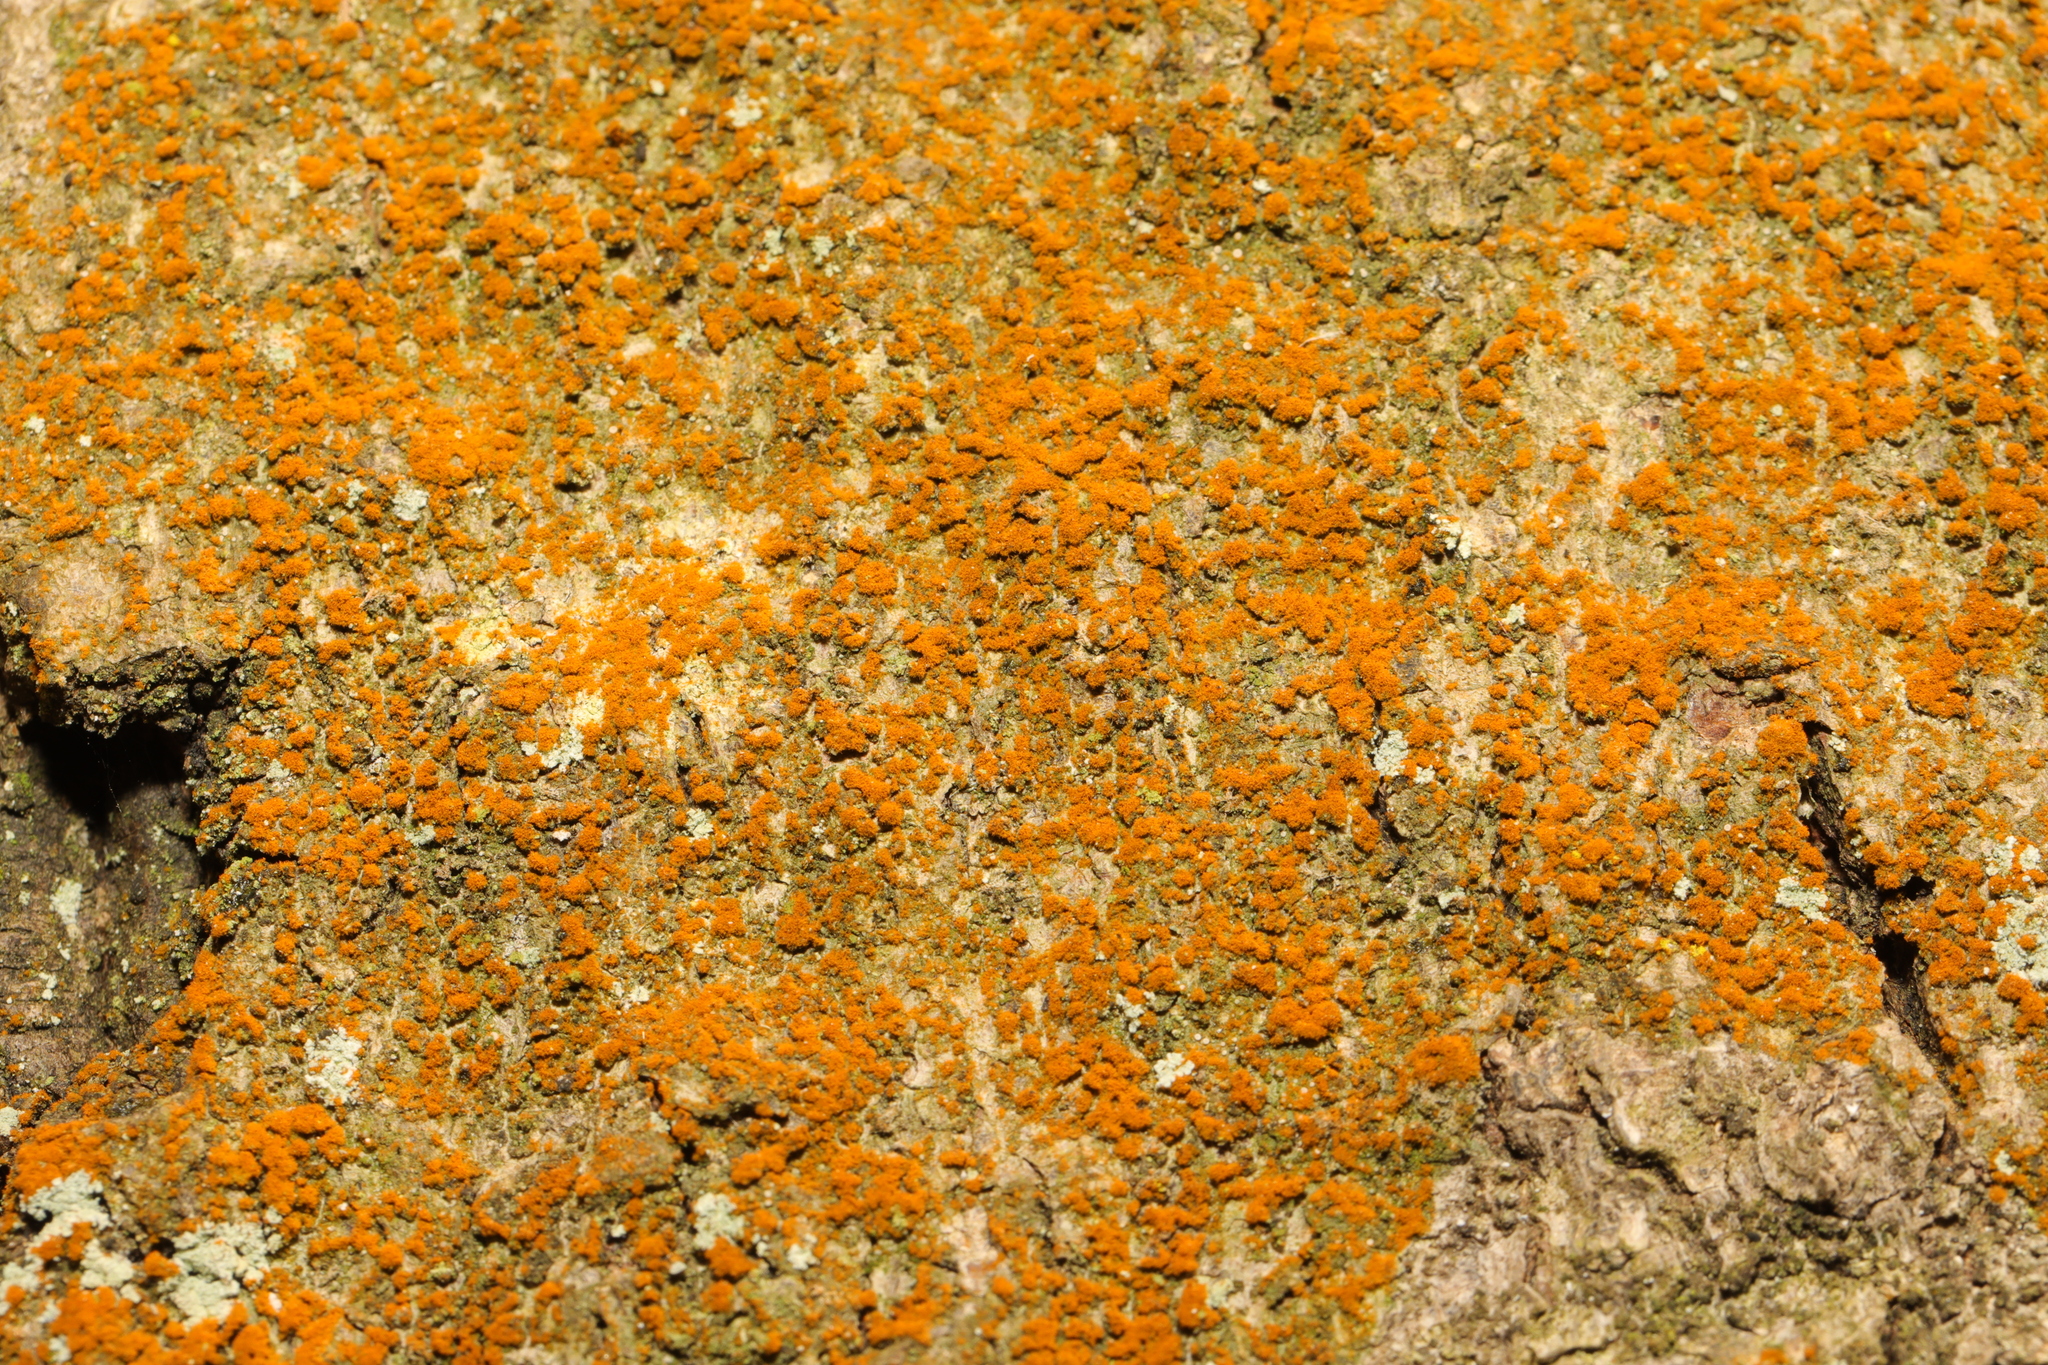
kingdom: Plantae
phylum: Chlorophyta
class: Ulvophyceae
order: Trentepohliales
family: Trentepohliaceae
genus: Trentepohlia
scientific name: Trentepohlia
